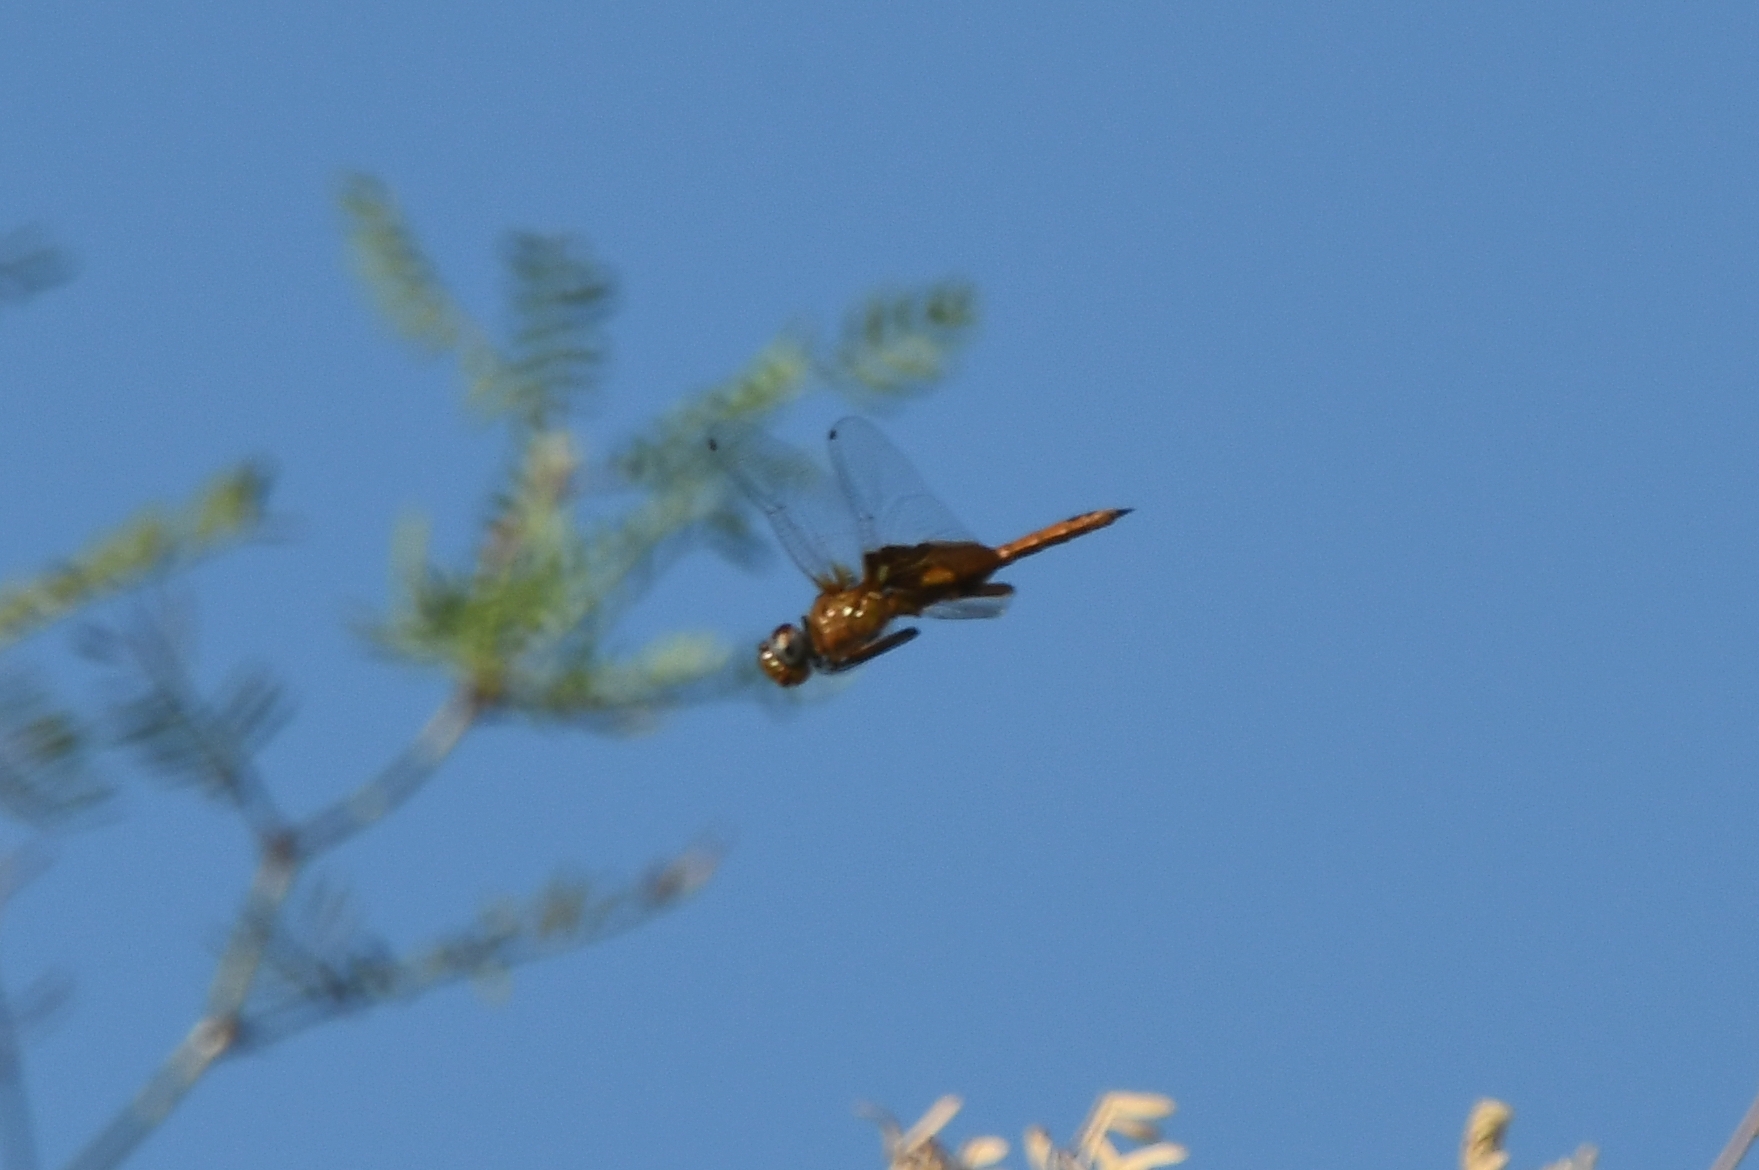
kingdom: Animalia
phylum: Arthropoda
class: Insecta
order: Odonata
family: Libellulidae
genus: Tramea
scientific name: Tramea onusta
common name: Red saddlebags
